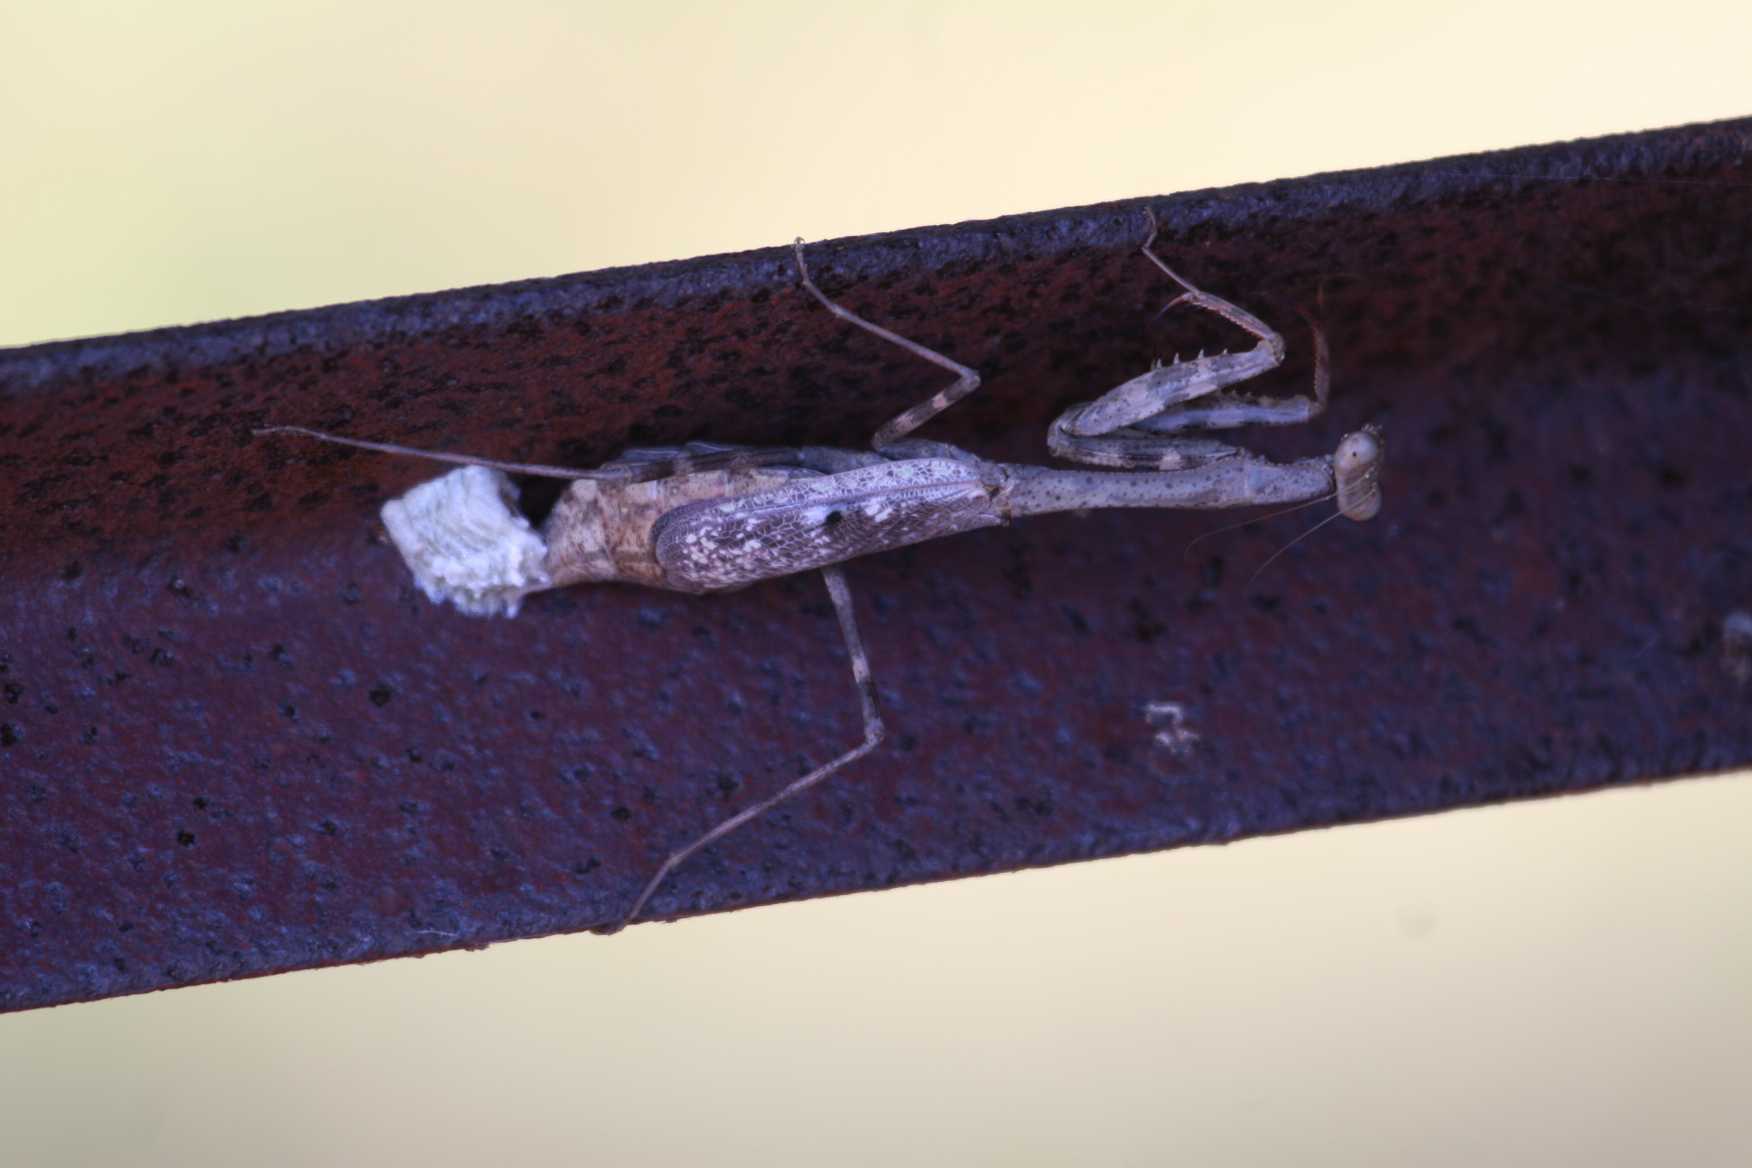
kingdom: Animalia
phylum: Arthropoda
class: Insecta
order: Mantodea
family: Mantidae
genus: Stagmomantis
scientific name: Stagmomantis carolina
